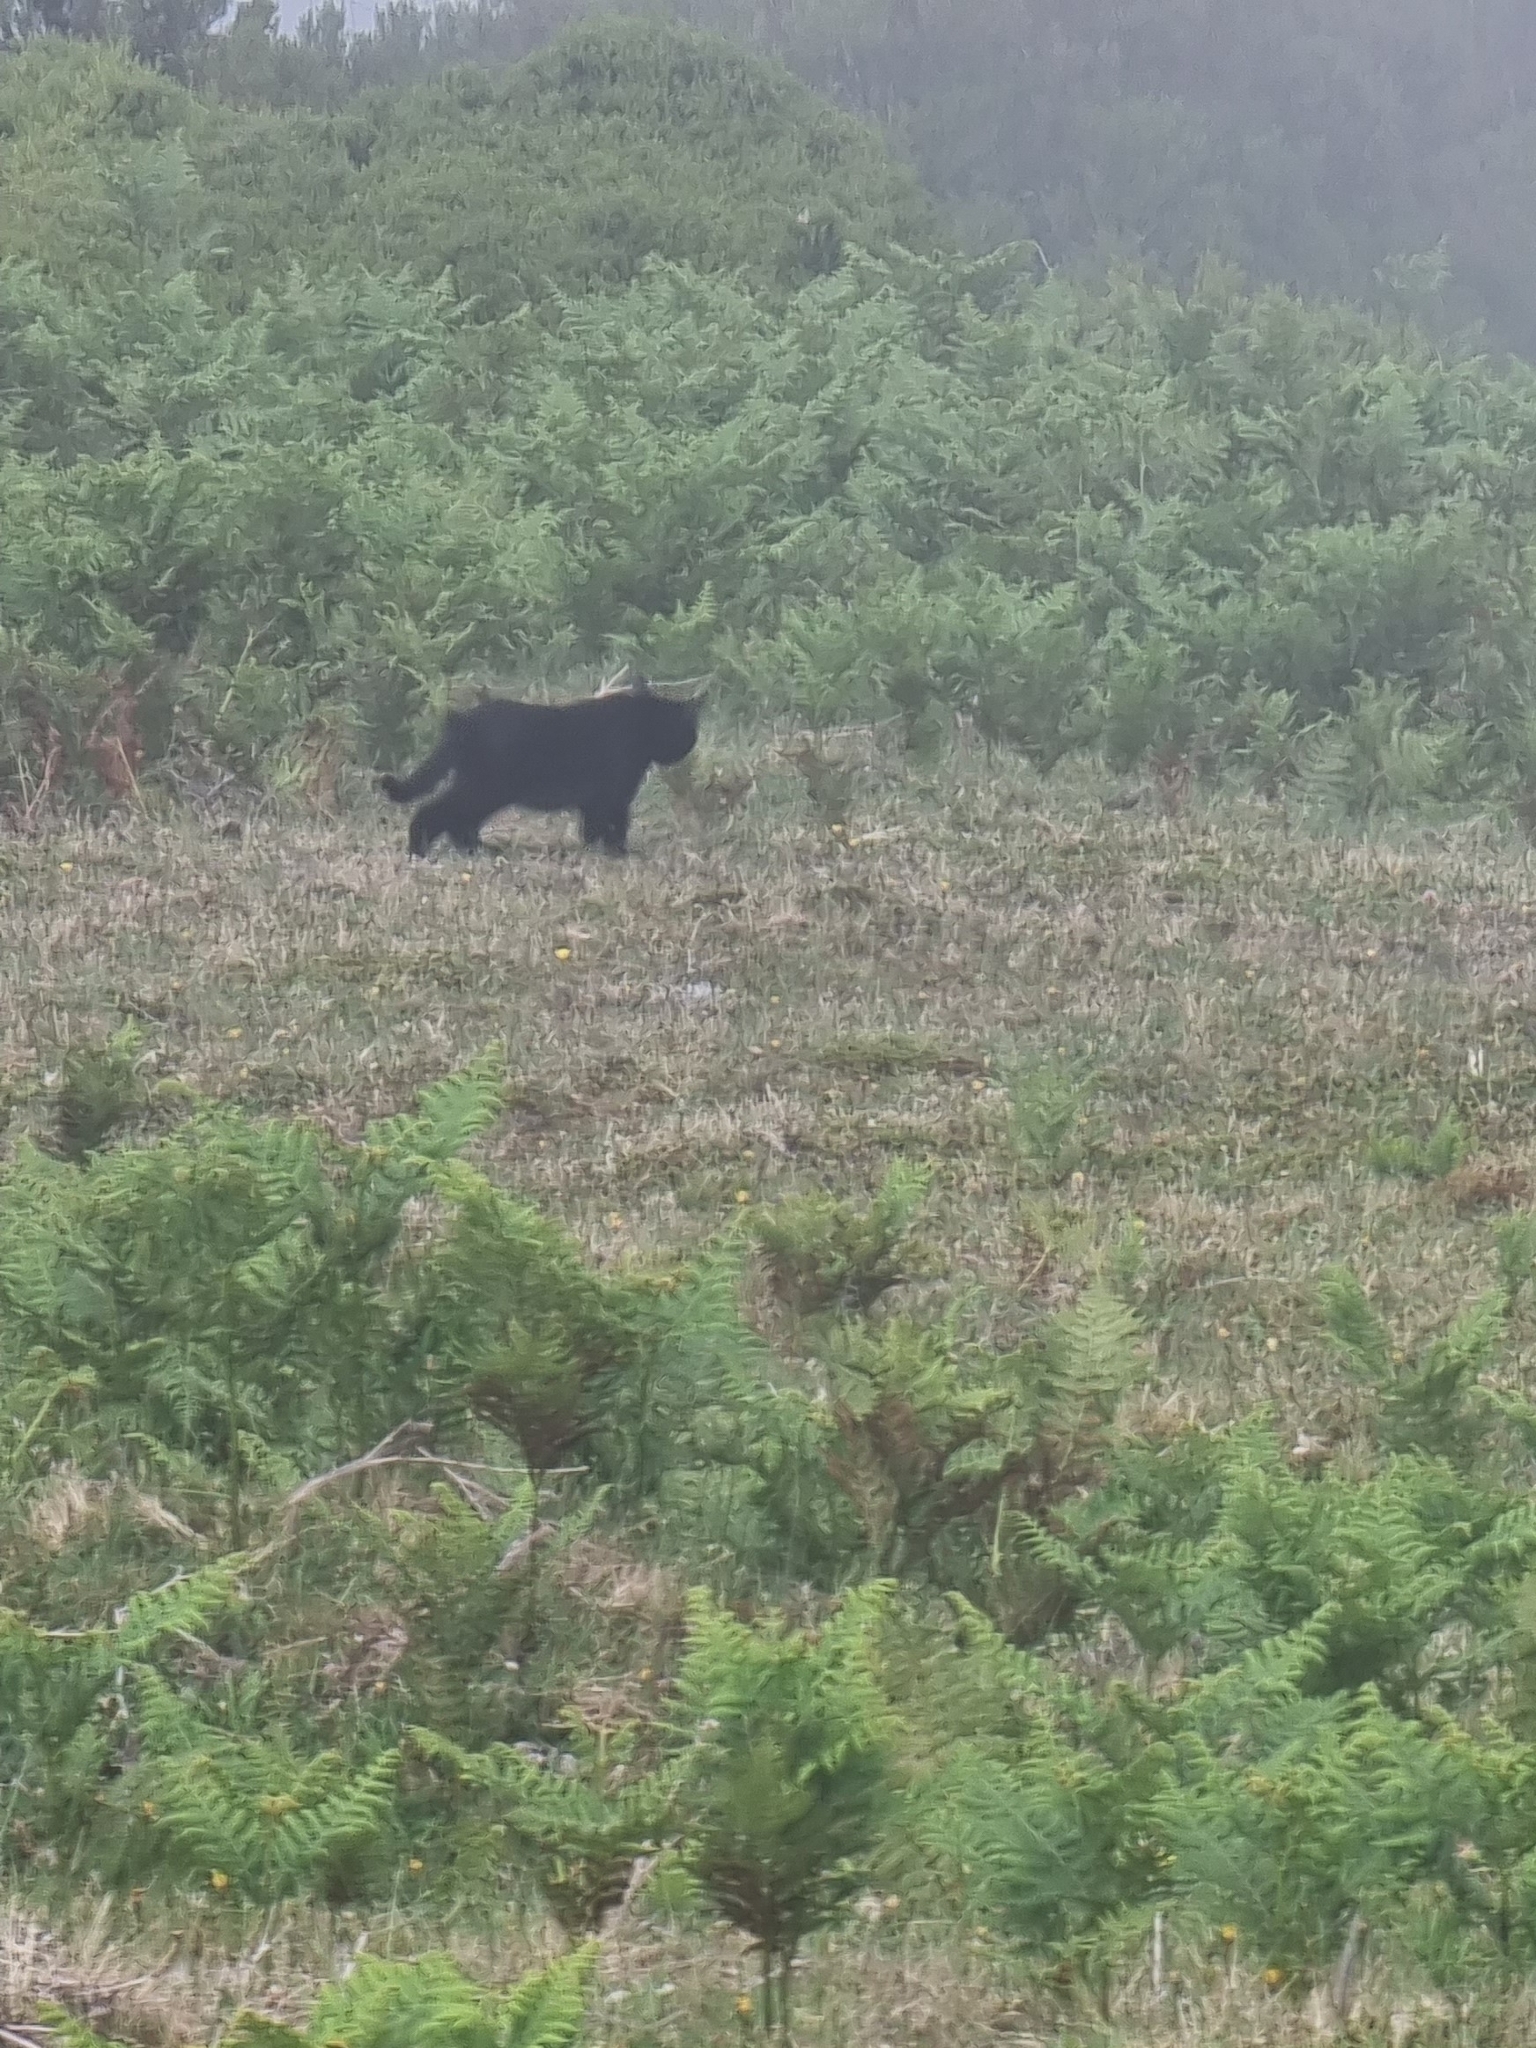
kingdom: Animalia
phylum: Chordata
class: Mammalia
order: Carnivora
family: Felidae
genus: Felis
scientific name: Felis catus
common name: Domestic cat
